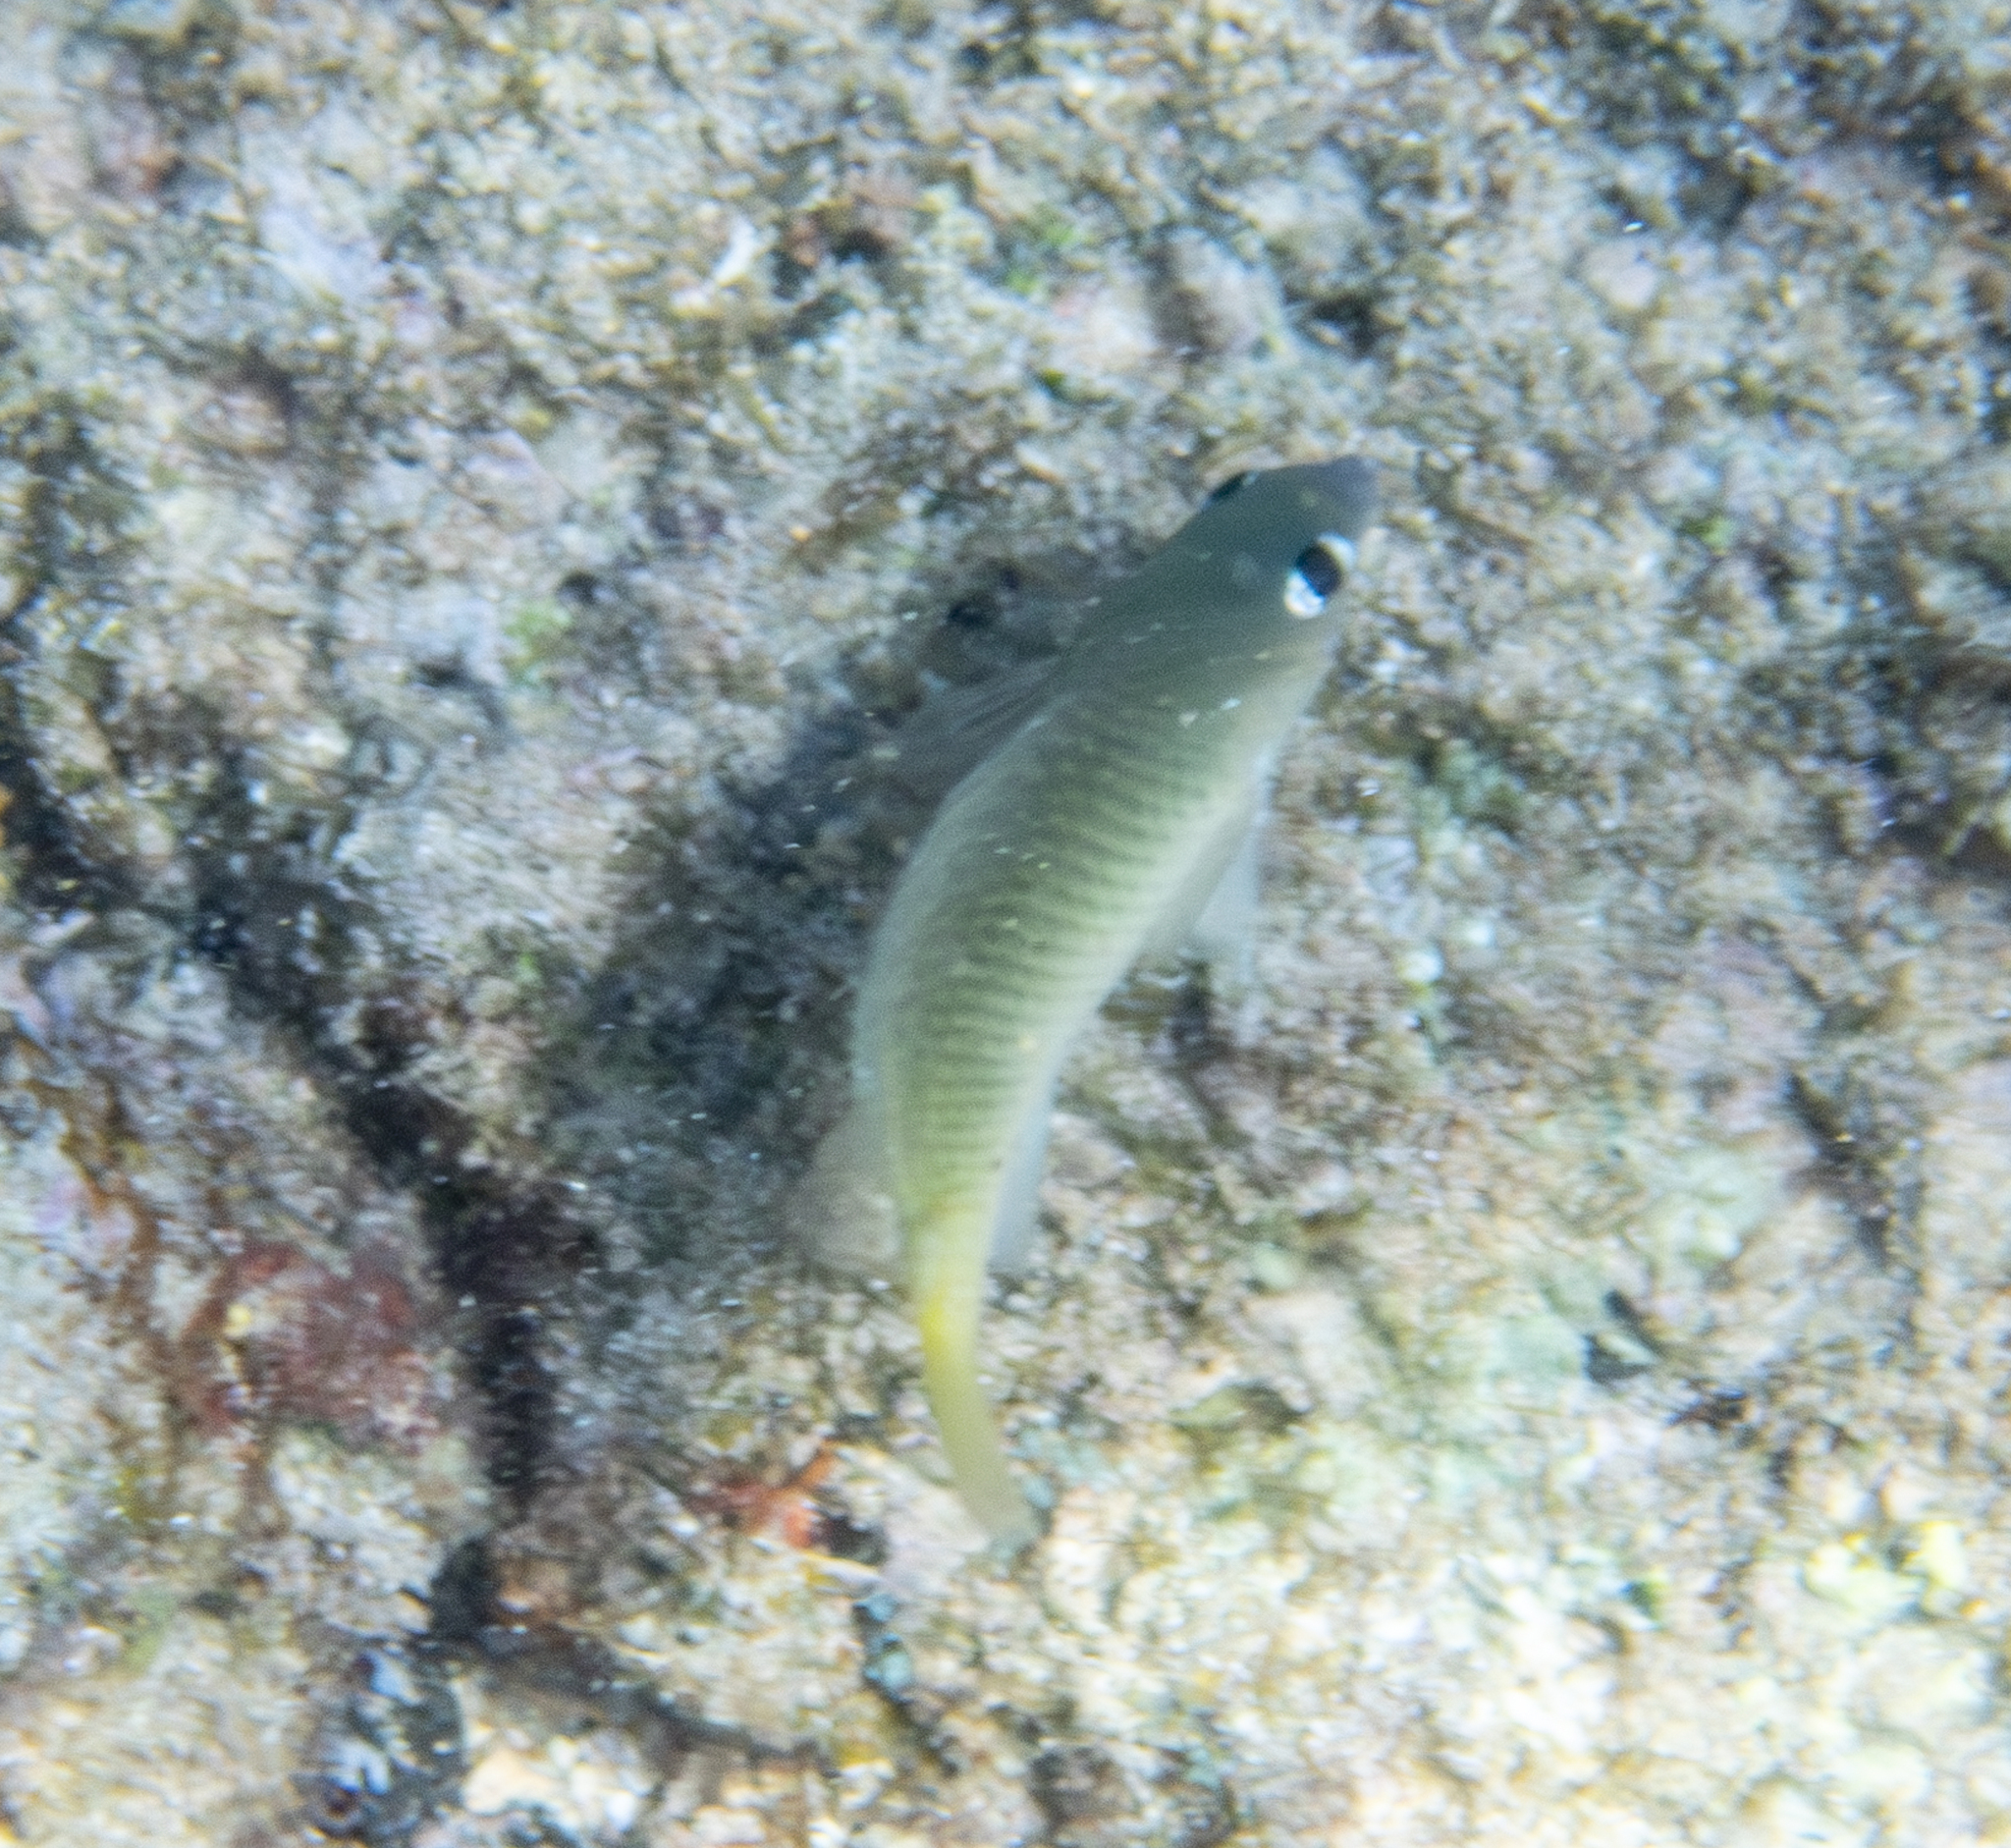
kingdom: Animalia
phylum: Chordata
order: Perciformes
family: Pomacentridae
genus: Plectroglyphidodon
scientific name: Plectroglyphidodon imparipennis
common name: Brighteye damsel
